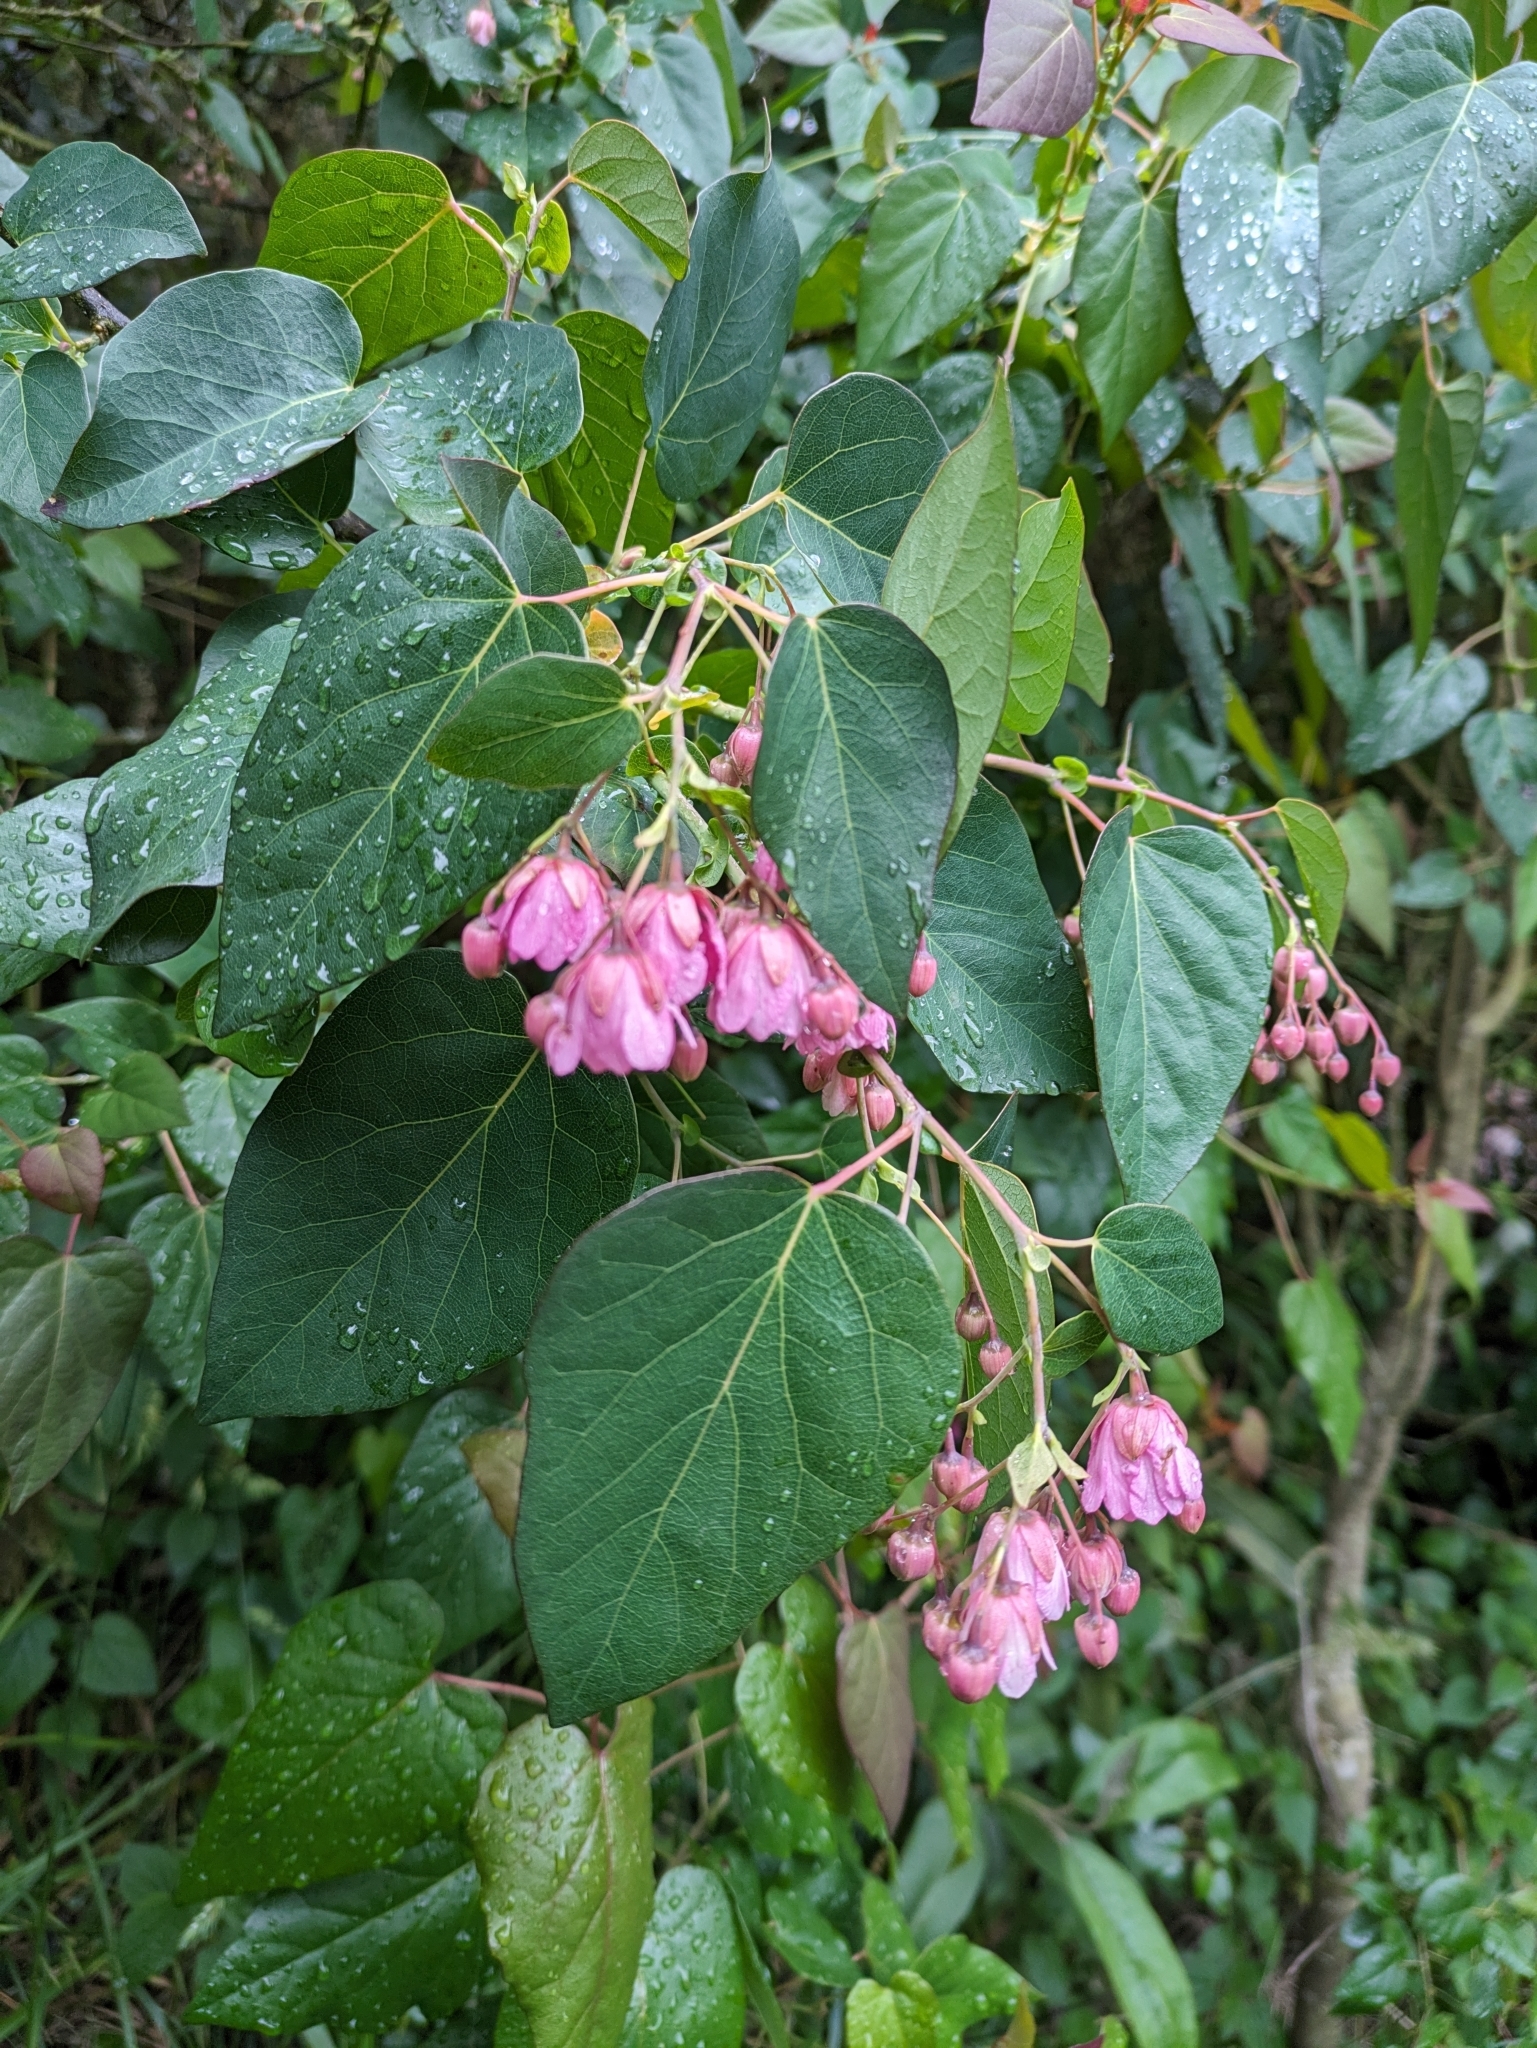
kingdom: Plantae
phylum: Tracheophyta
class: Magnoliopsida
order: Oxalidales
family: Elaeocarpaceae
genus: Vallea
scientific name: Vallea stipularis
